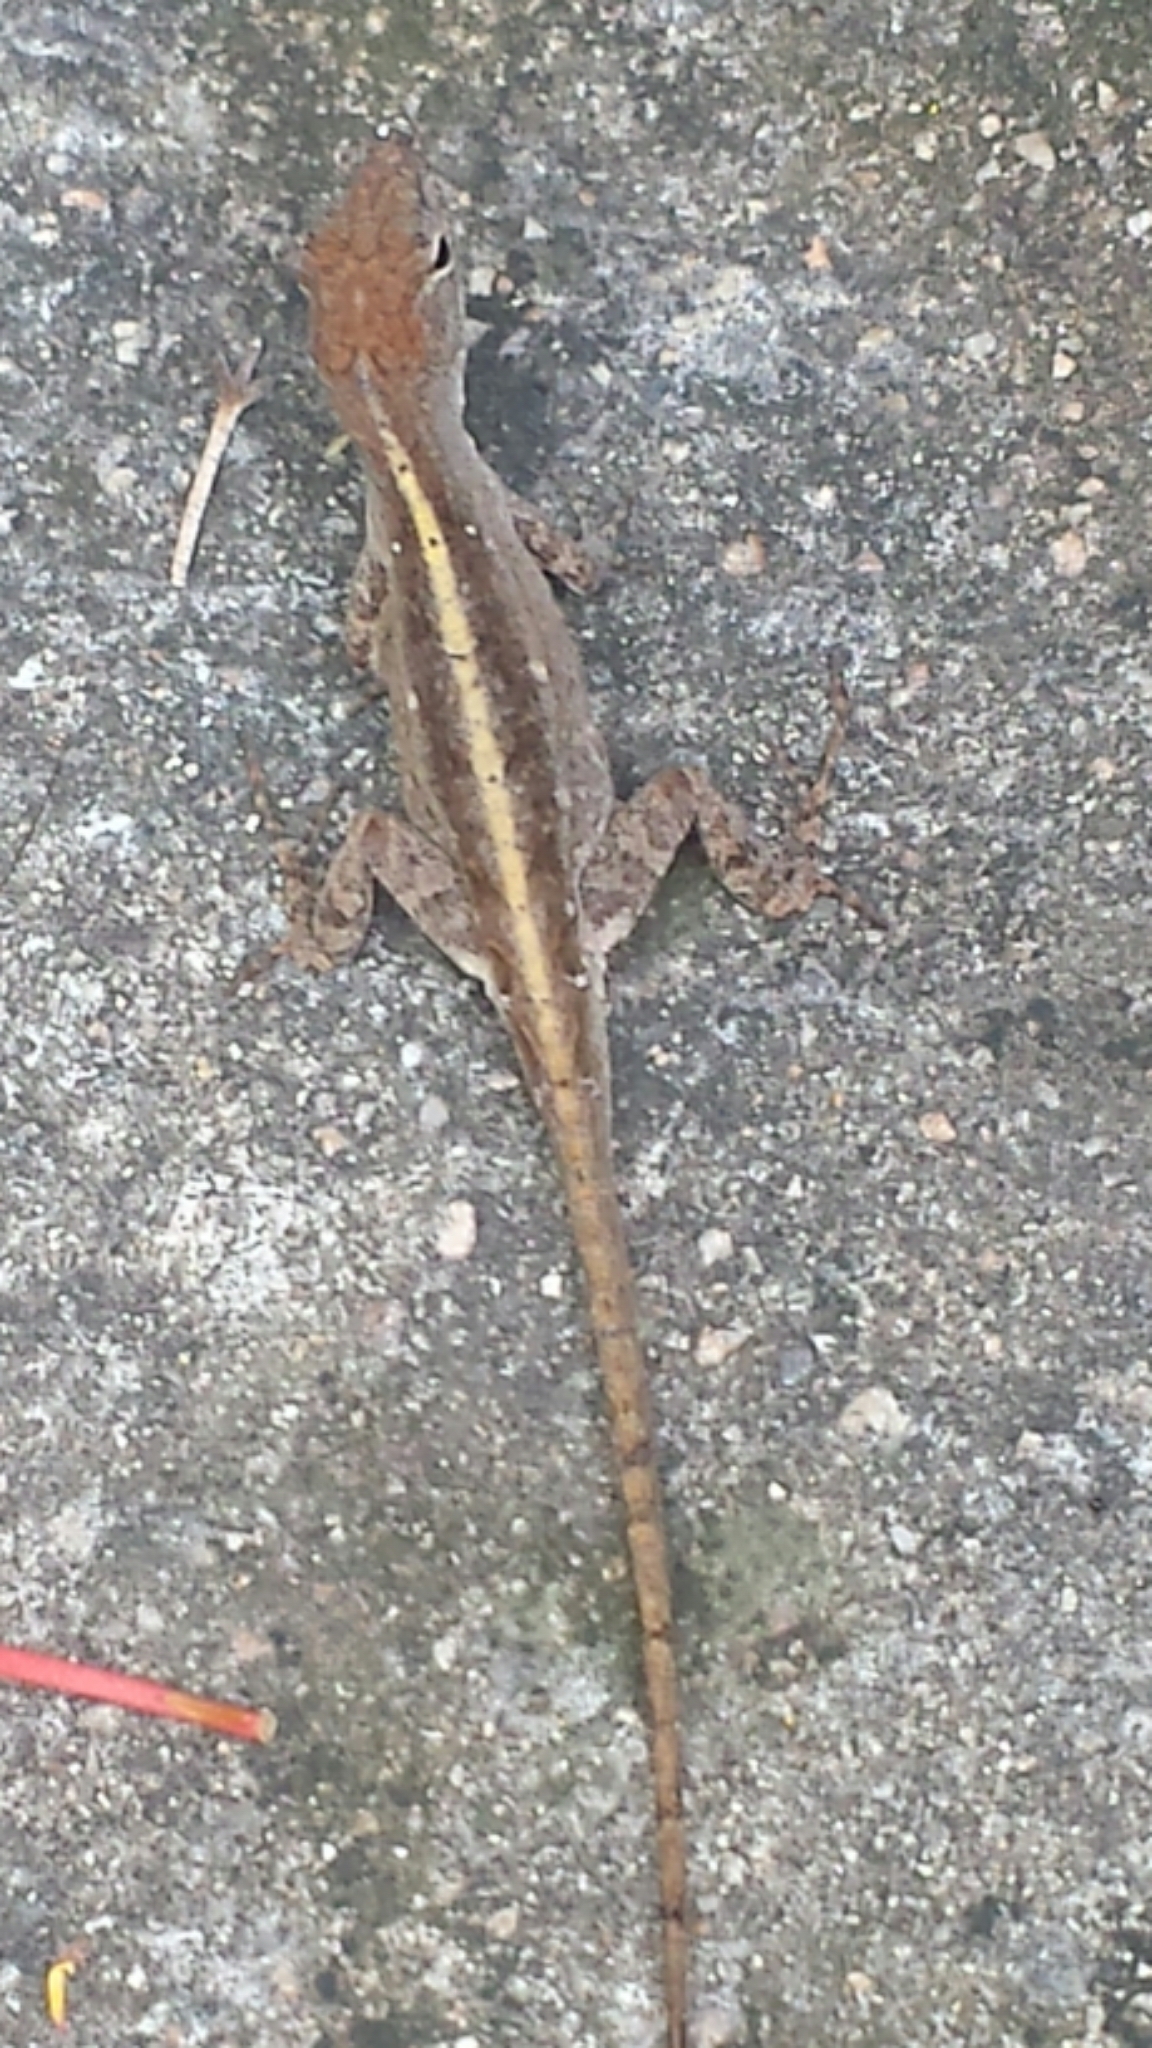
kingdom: Animalia
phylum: Chordata
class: Squamata
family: Dactyloidae
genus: Anolis
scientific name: Anolis sagrei
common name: Brown anole
